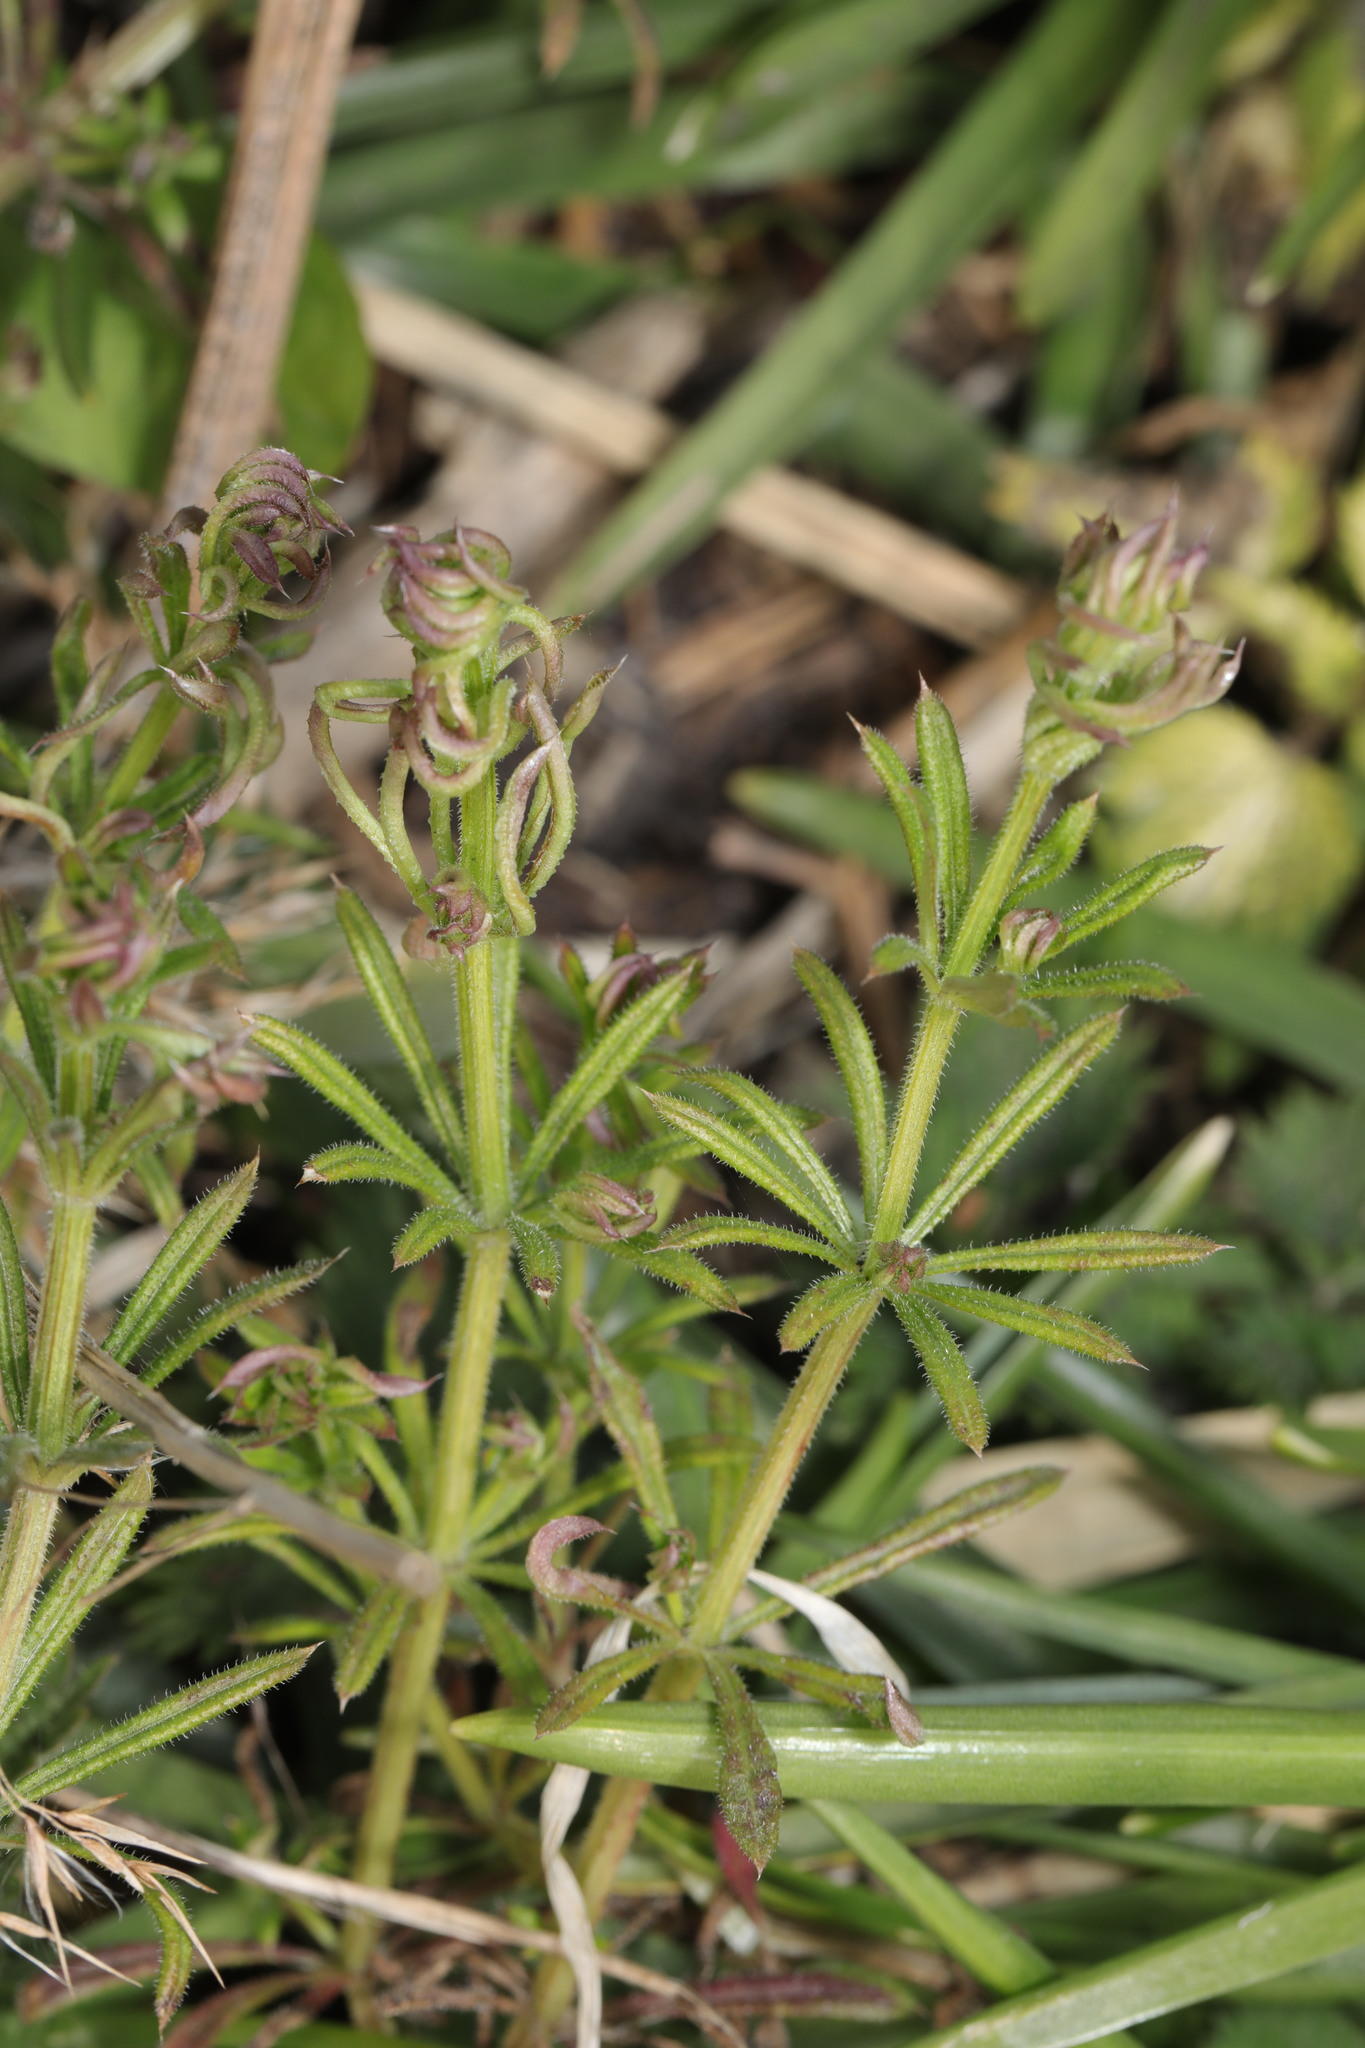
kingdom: Plantae
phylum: Tracheophyta
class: Magnoliopsida
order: Gentianales
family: Rubiaceae
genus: Galium
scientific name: Galium aparine
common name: Cleavers
